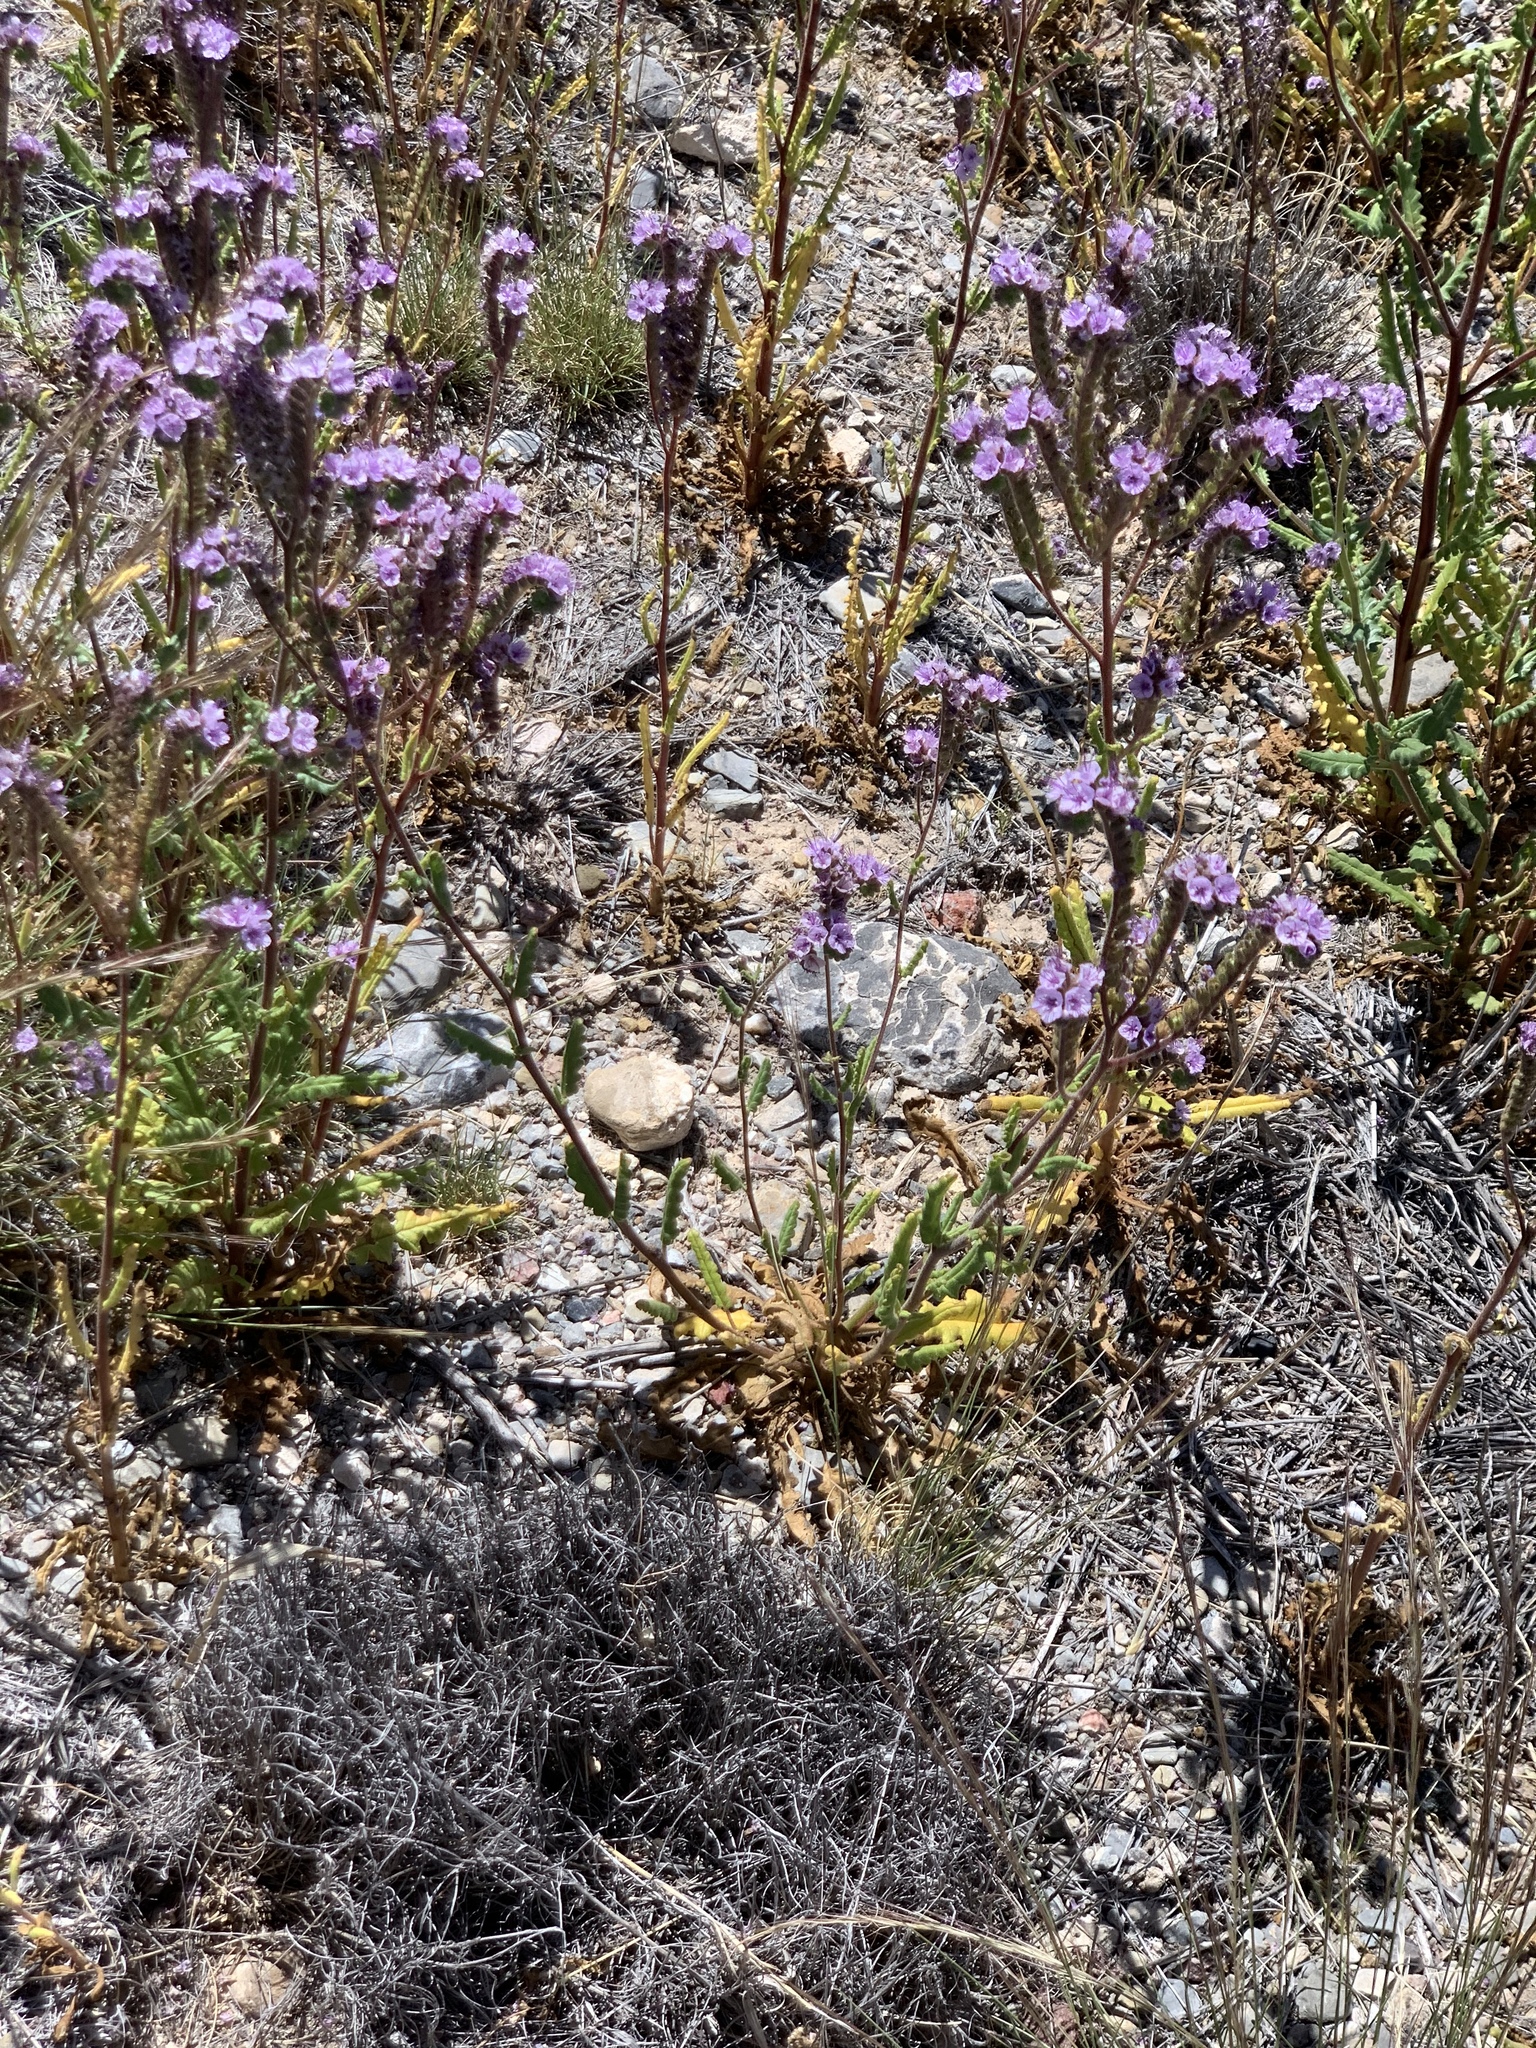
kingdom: Plantae
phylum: Tracheophyta
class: Magnoliopsida
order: Boraginales
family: Hydrophyllaceae
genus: Phacelia
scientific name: Phacelia integrifolia
